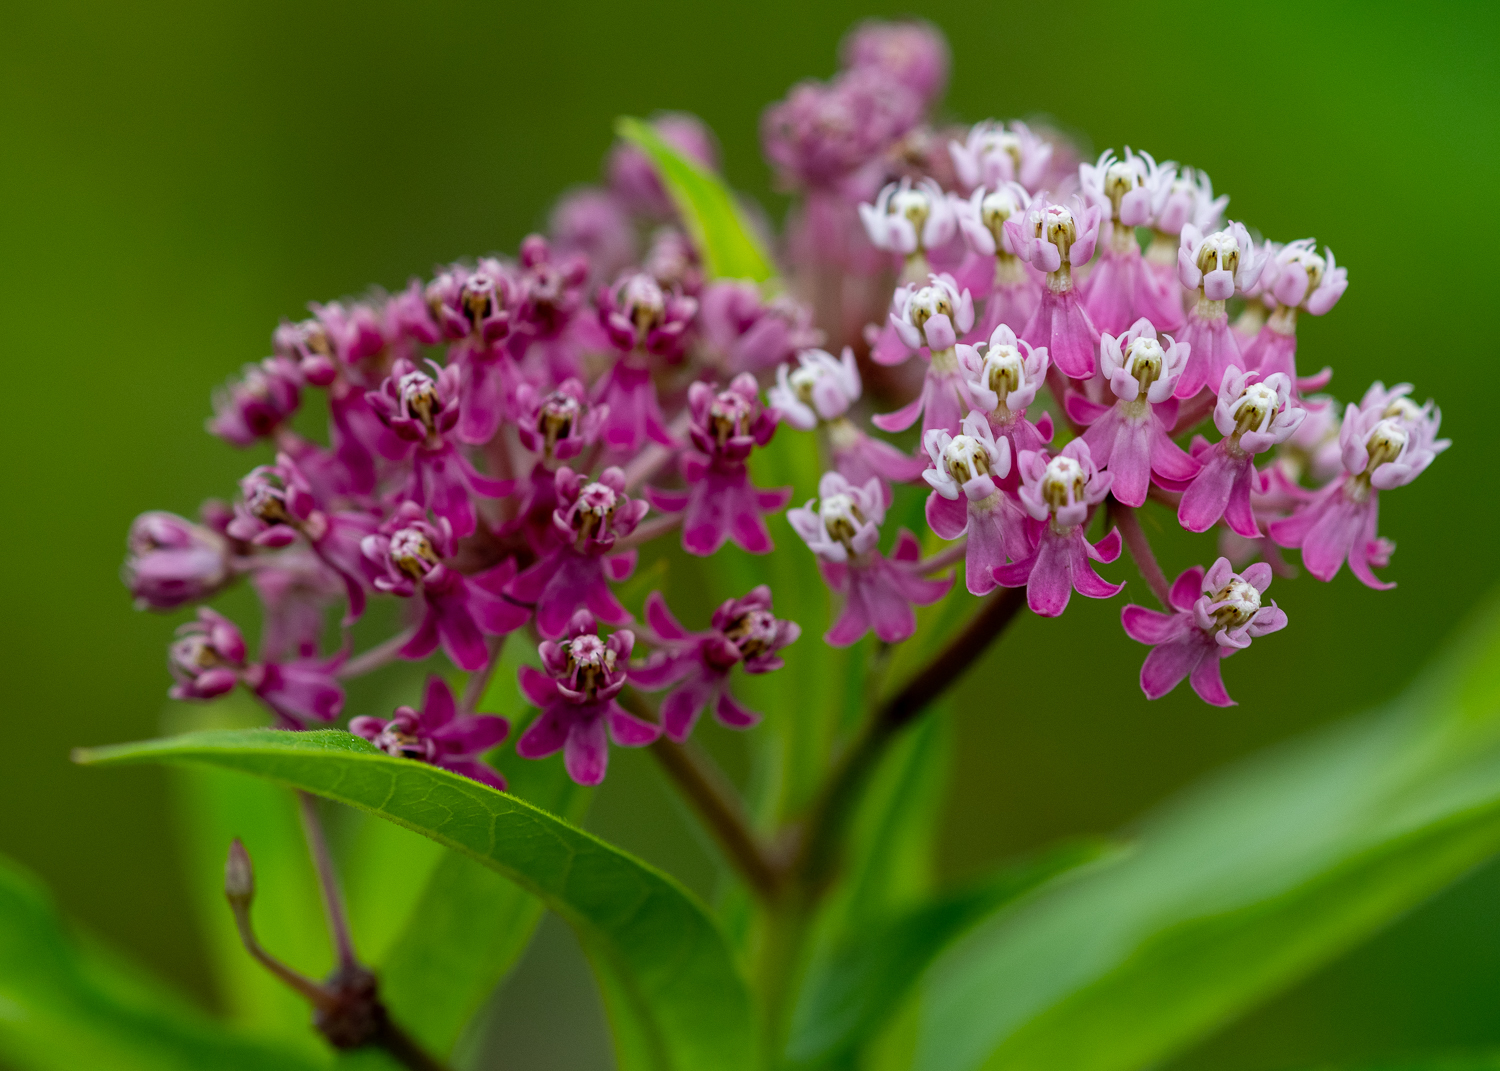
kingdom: Plantae
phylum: Tracheophyta
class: Magnoliopsida
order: Gentianales
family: Apocynaceae
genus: Asclepias
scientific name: Asclepias incarnata
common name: Swamp milkweed
